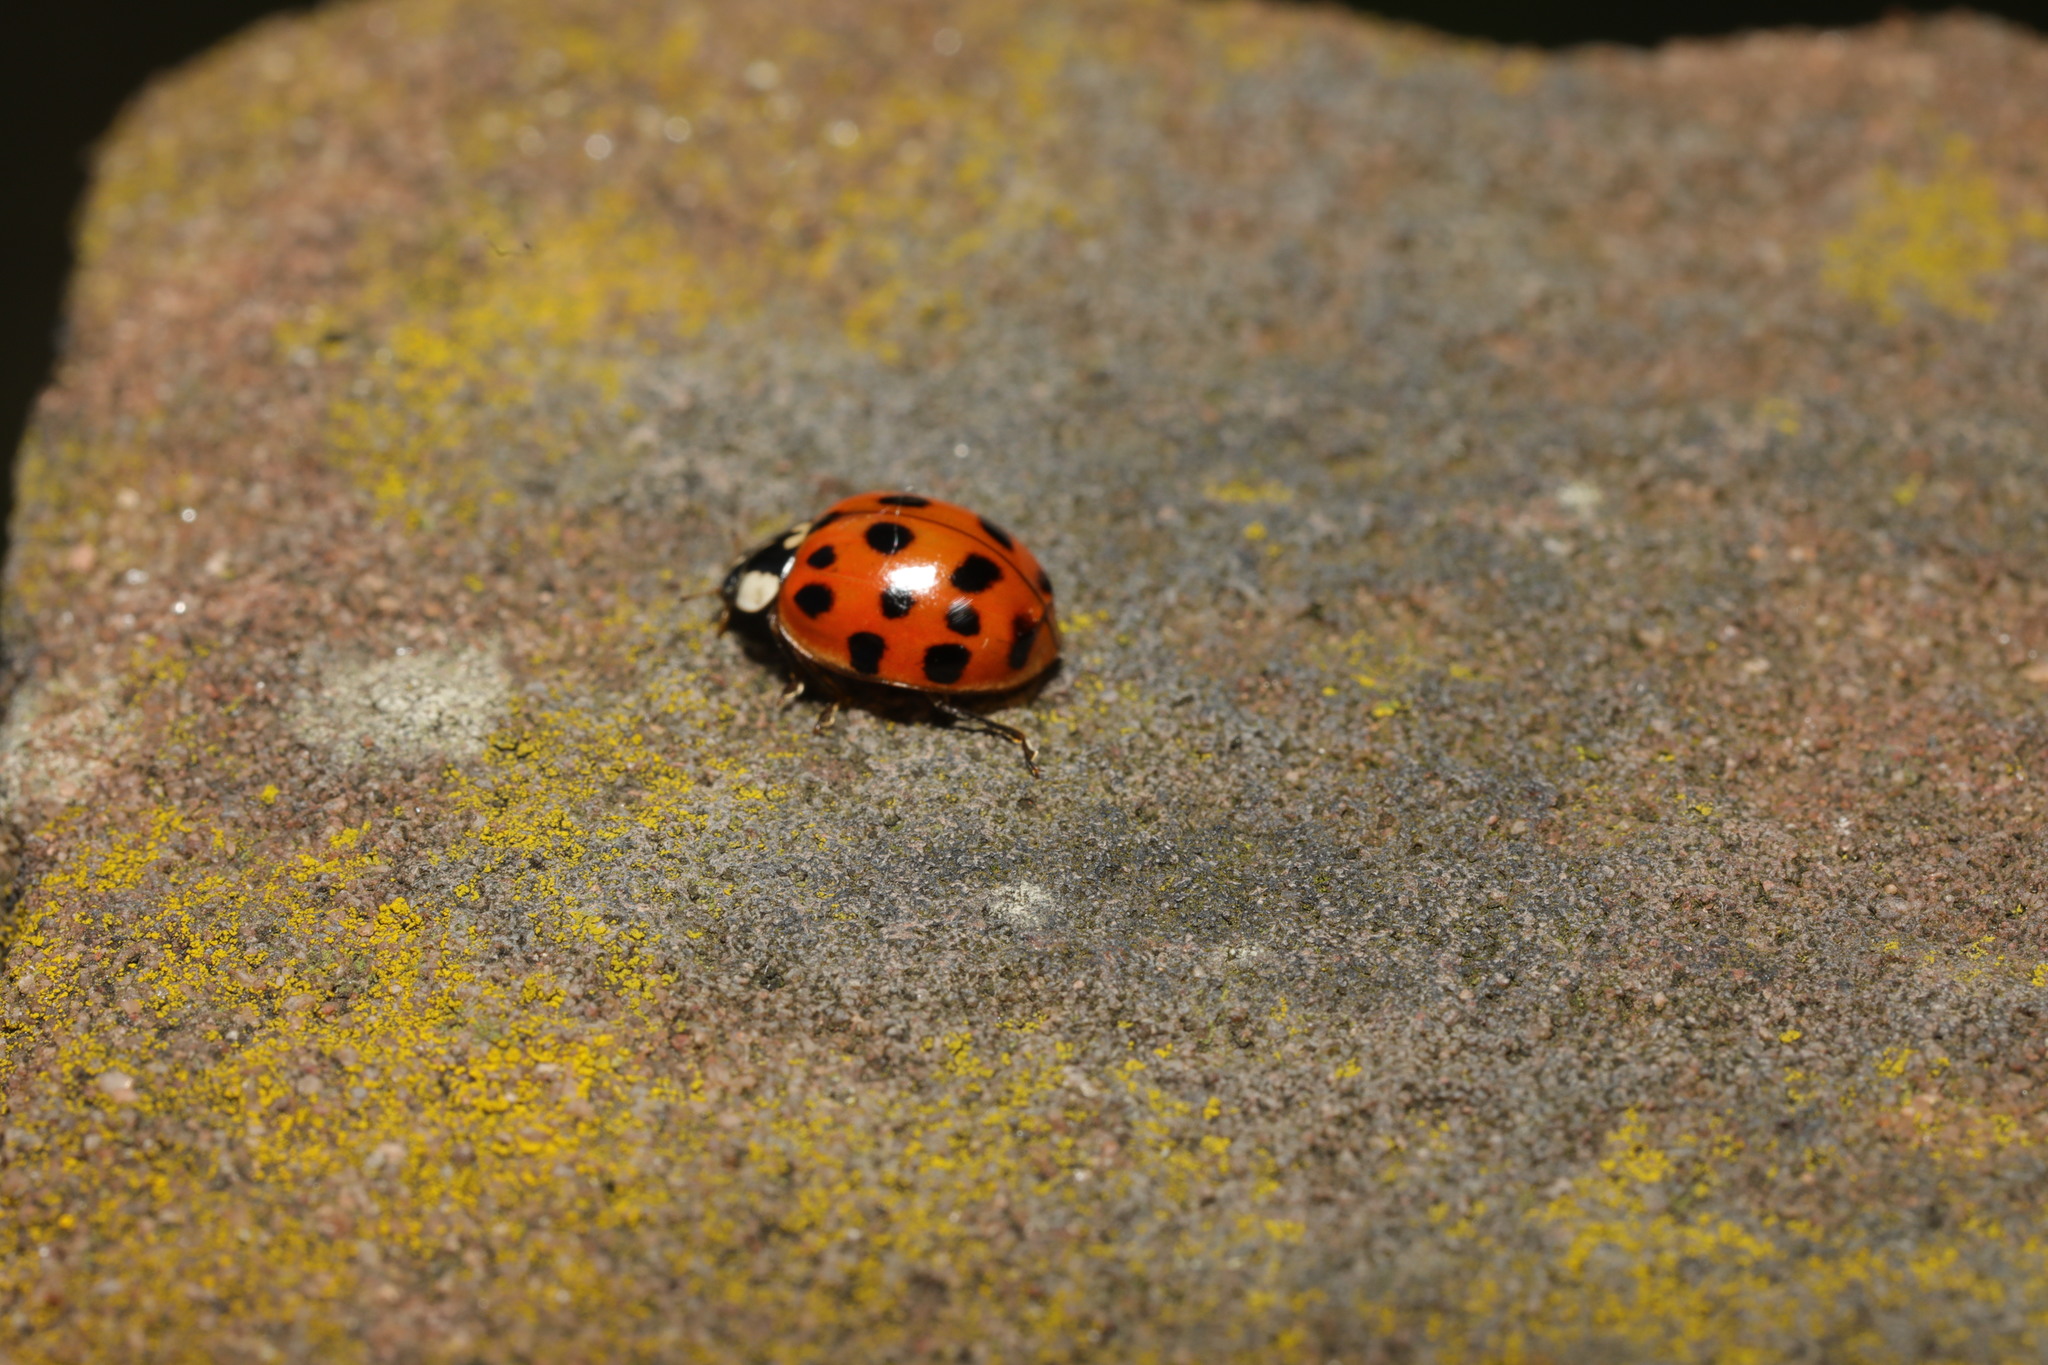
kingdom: Animalia
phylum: Arthropoda
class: Insecta
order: Coleoptera
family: Coccinellidae
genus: Harmonia
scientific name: Harmonia axyridis
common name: Harlequin ladybird
